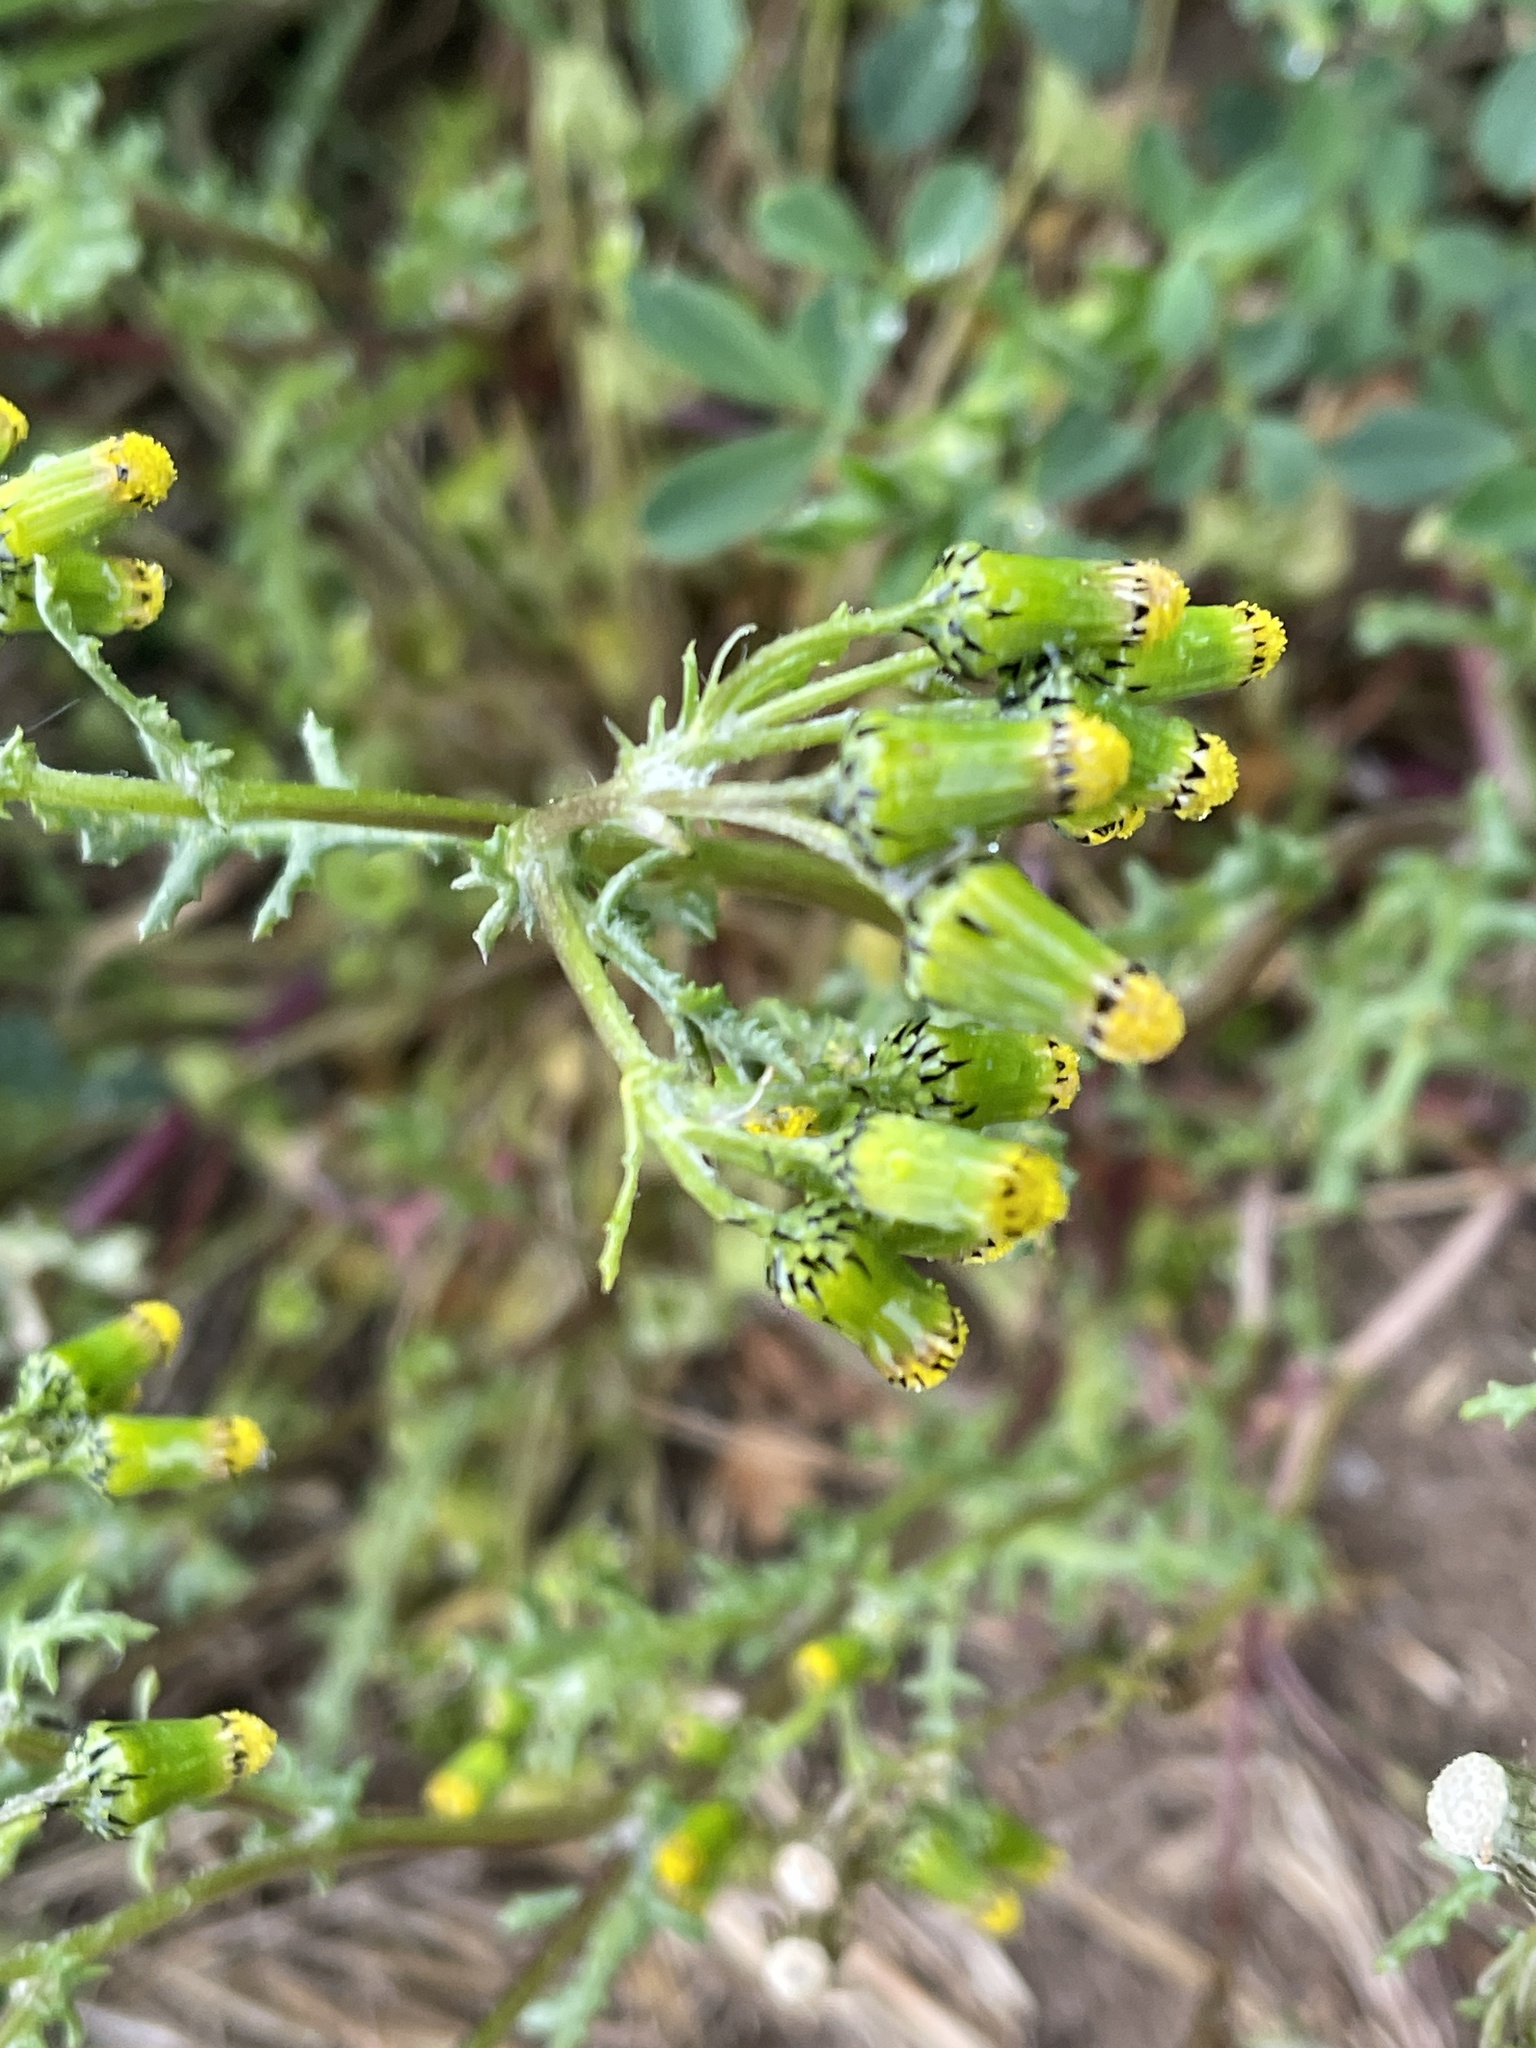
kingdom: Plantae
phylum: Tracheophyta
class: Magnoliopsida
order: Asterales
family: Asteraceae
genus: Senecio
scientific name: Senecio vulgaris
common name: Old-man-in-the-spring
